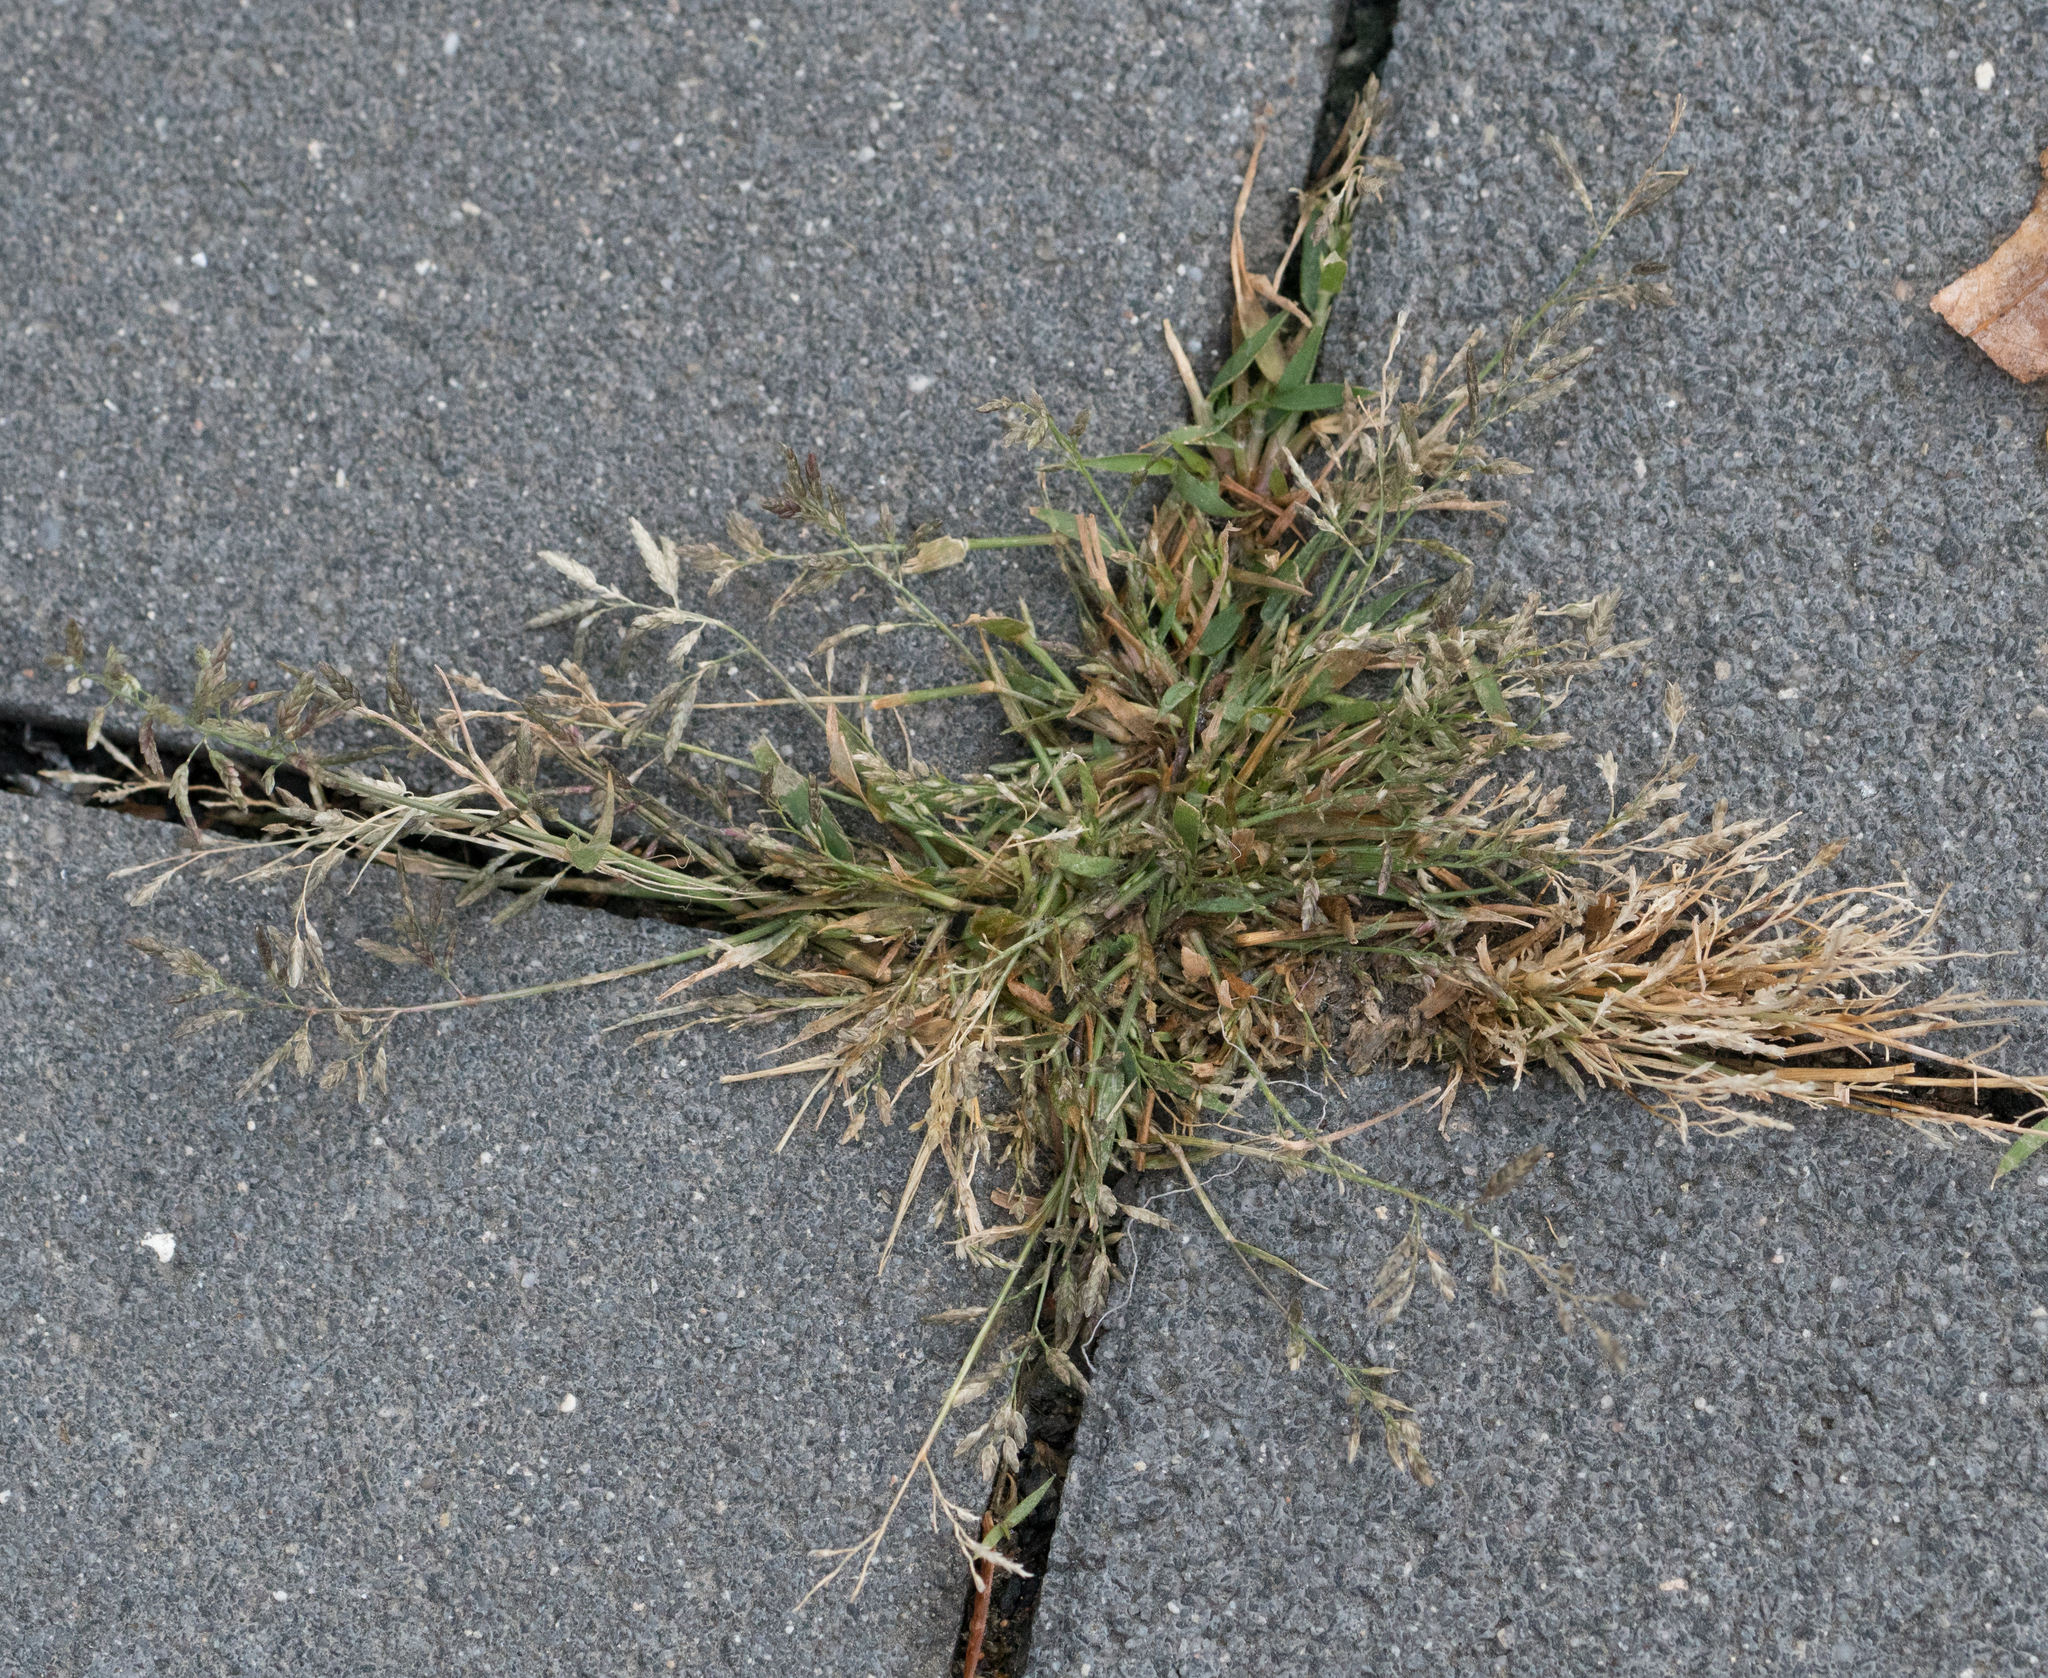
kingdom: Plantae
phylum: Tracheophyta
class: Liliopsida
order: Poales
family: Poaceae
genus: Eragrostis
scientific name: Eragrostis minor
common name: Small love-grass
